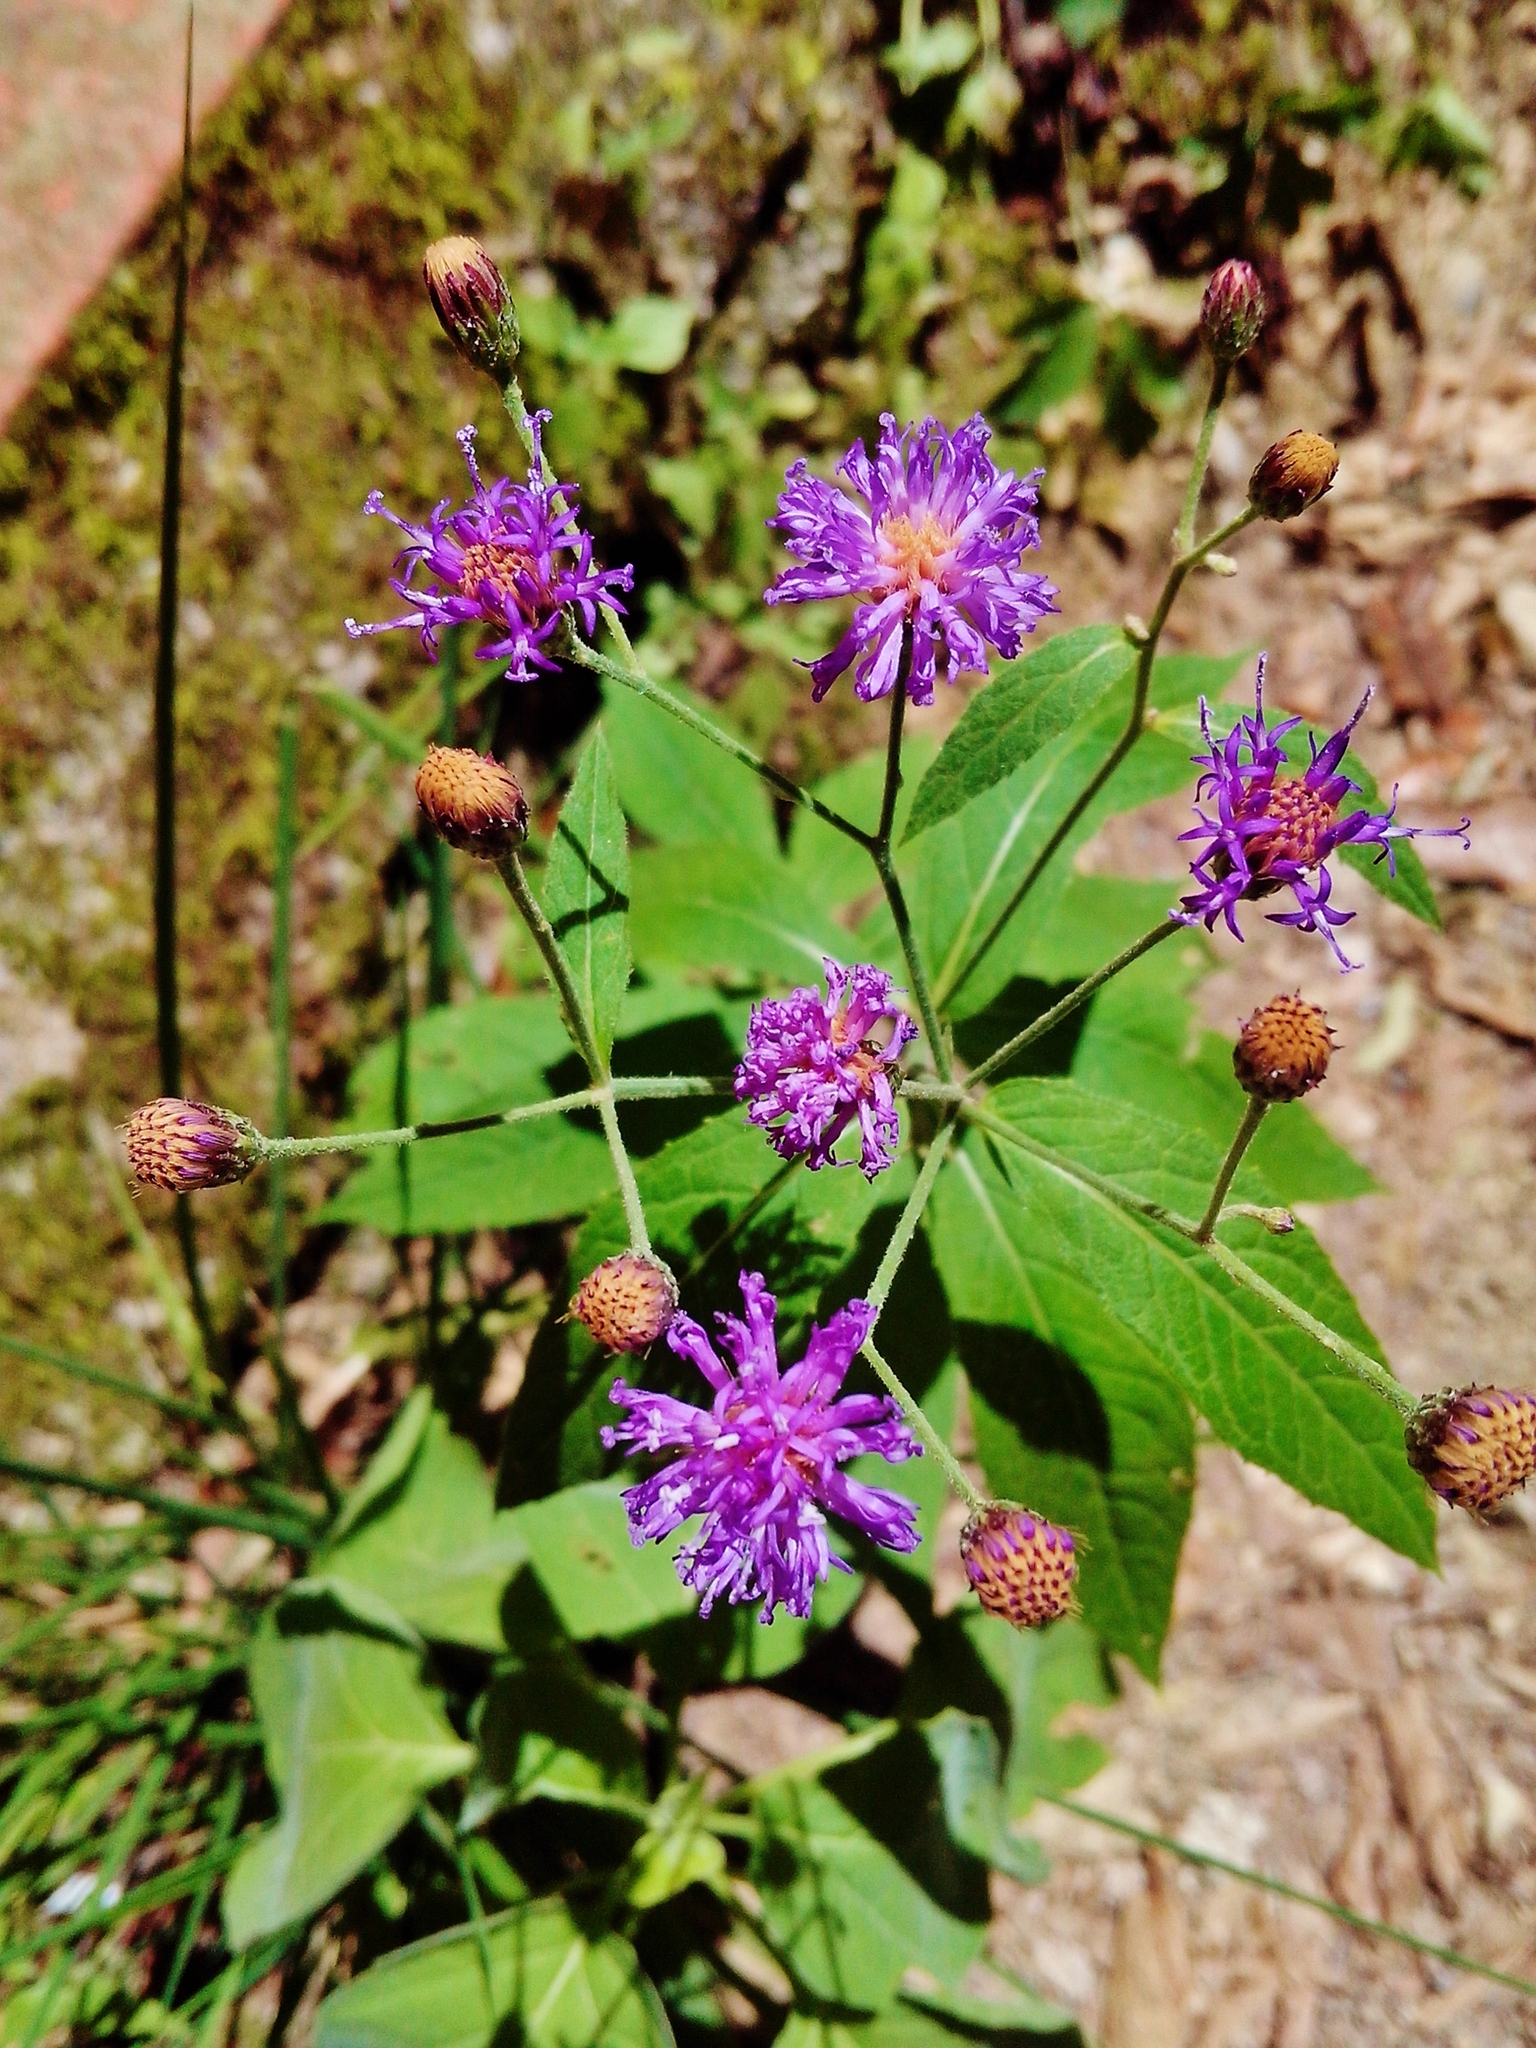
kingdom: Plantae
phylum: Tracheophyta
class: Magnoliopsida
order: Asterales
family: Asteraceae
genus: Vernonia
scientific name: Vernonia greggii
